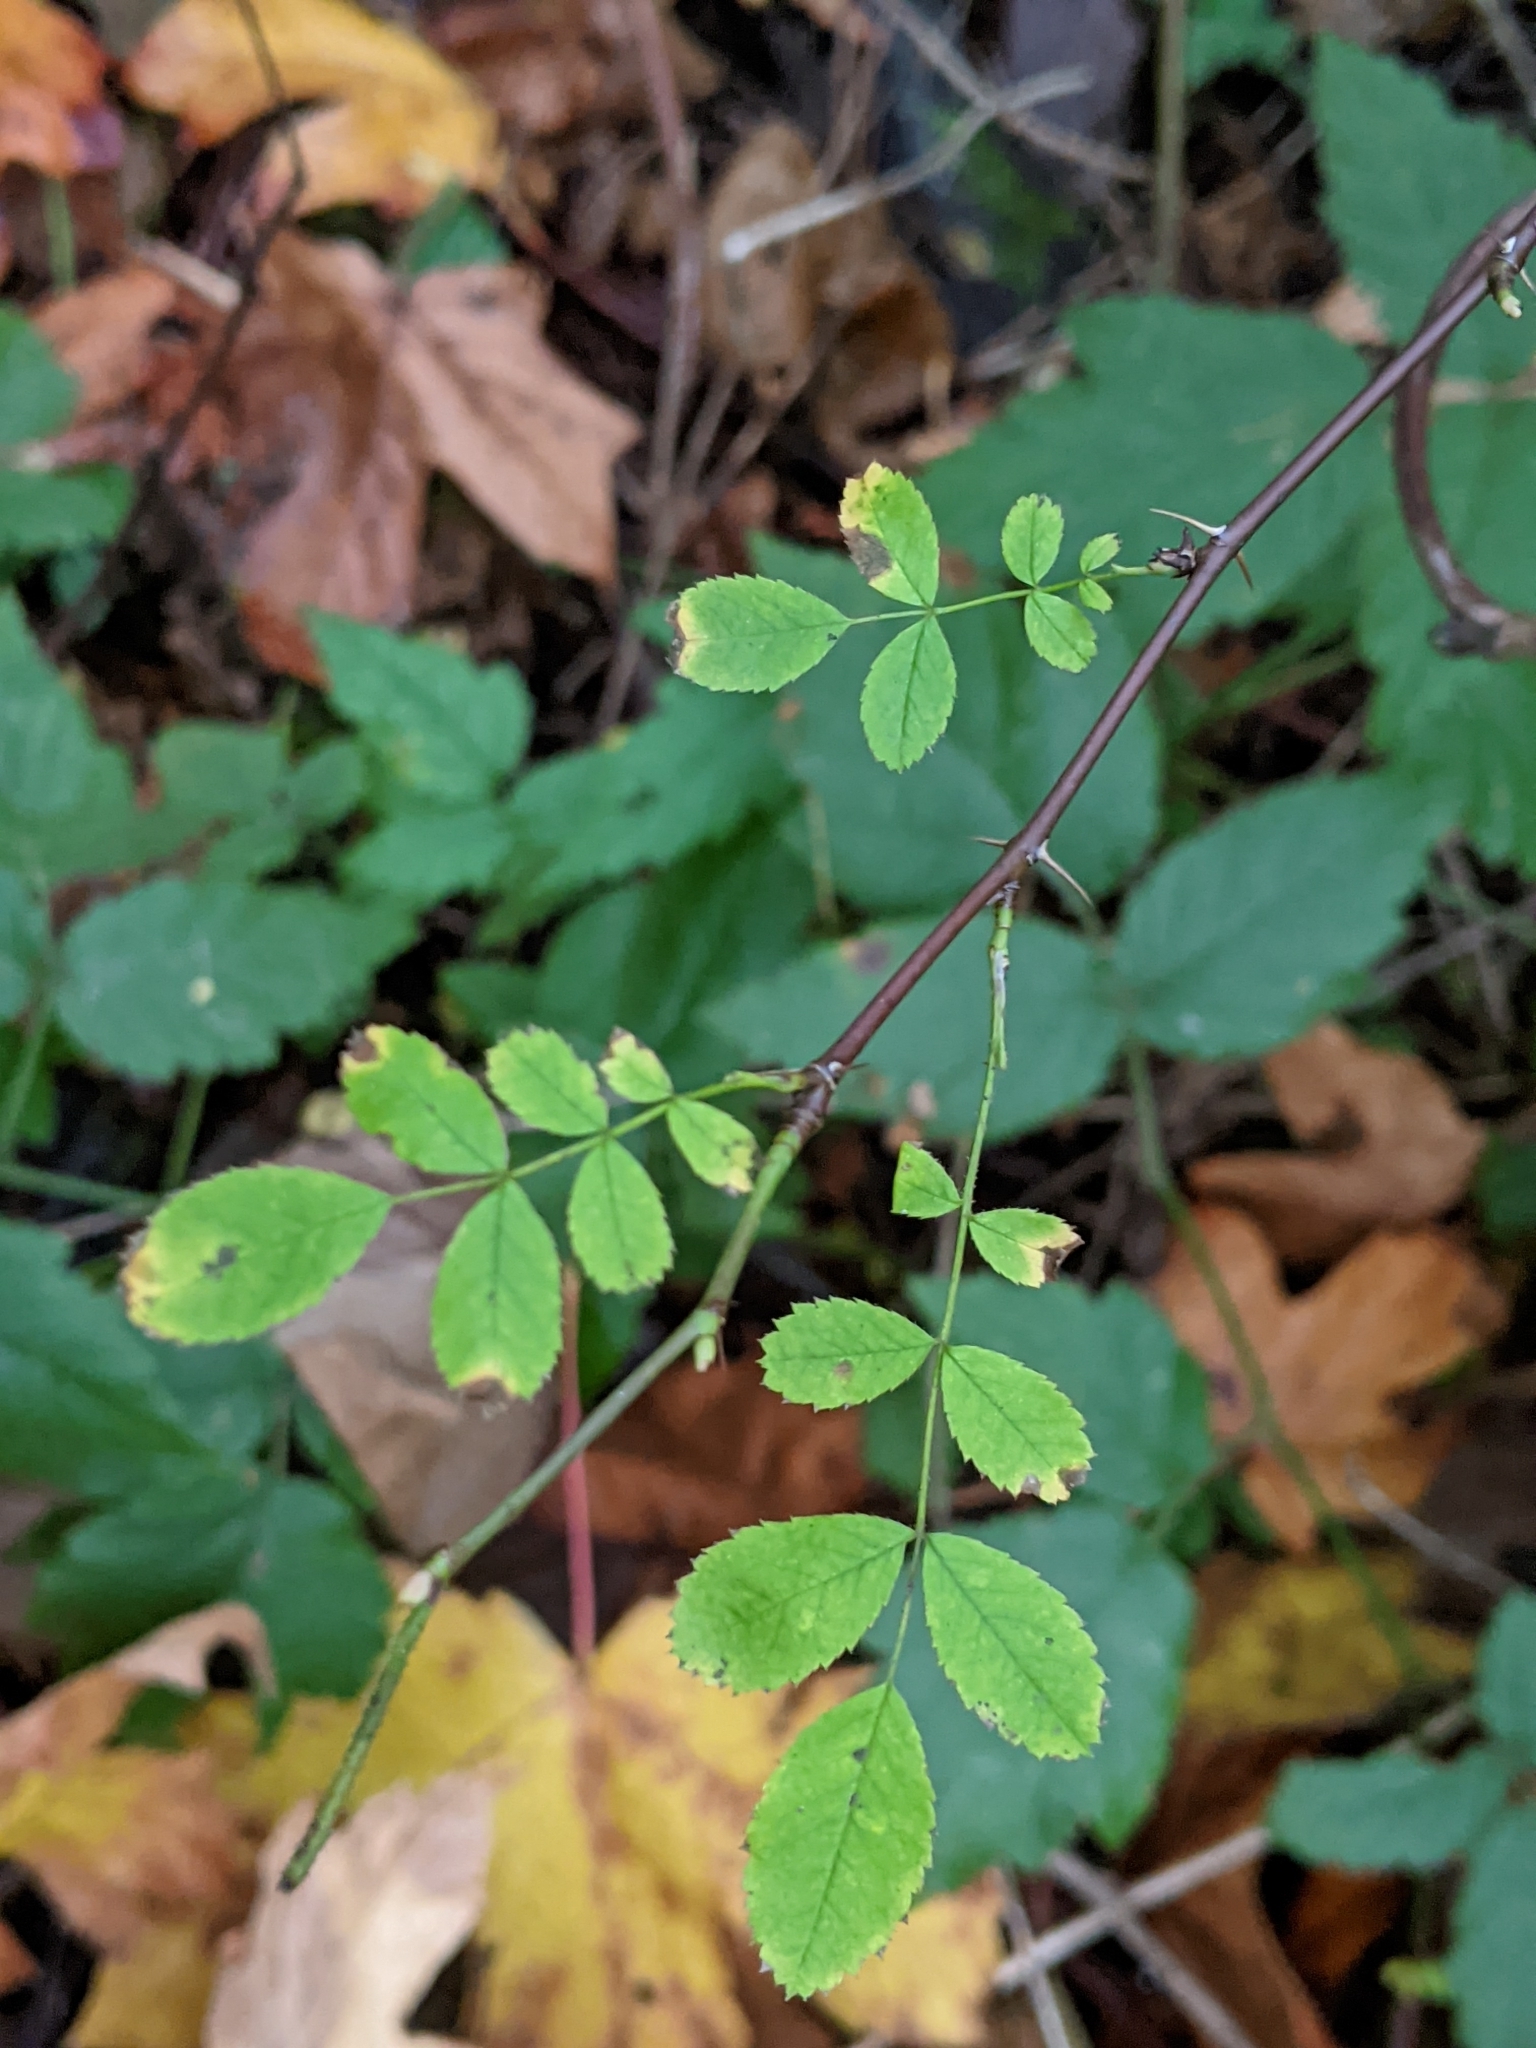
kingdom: Plantae
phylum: Tracheophyta
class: Magnoliopsida
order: Rosales
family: Rosaceae
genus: Rosa
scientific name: Rosa gymnocarpa
